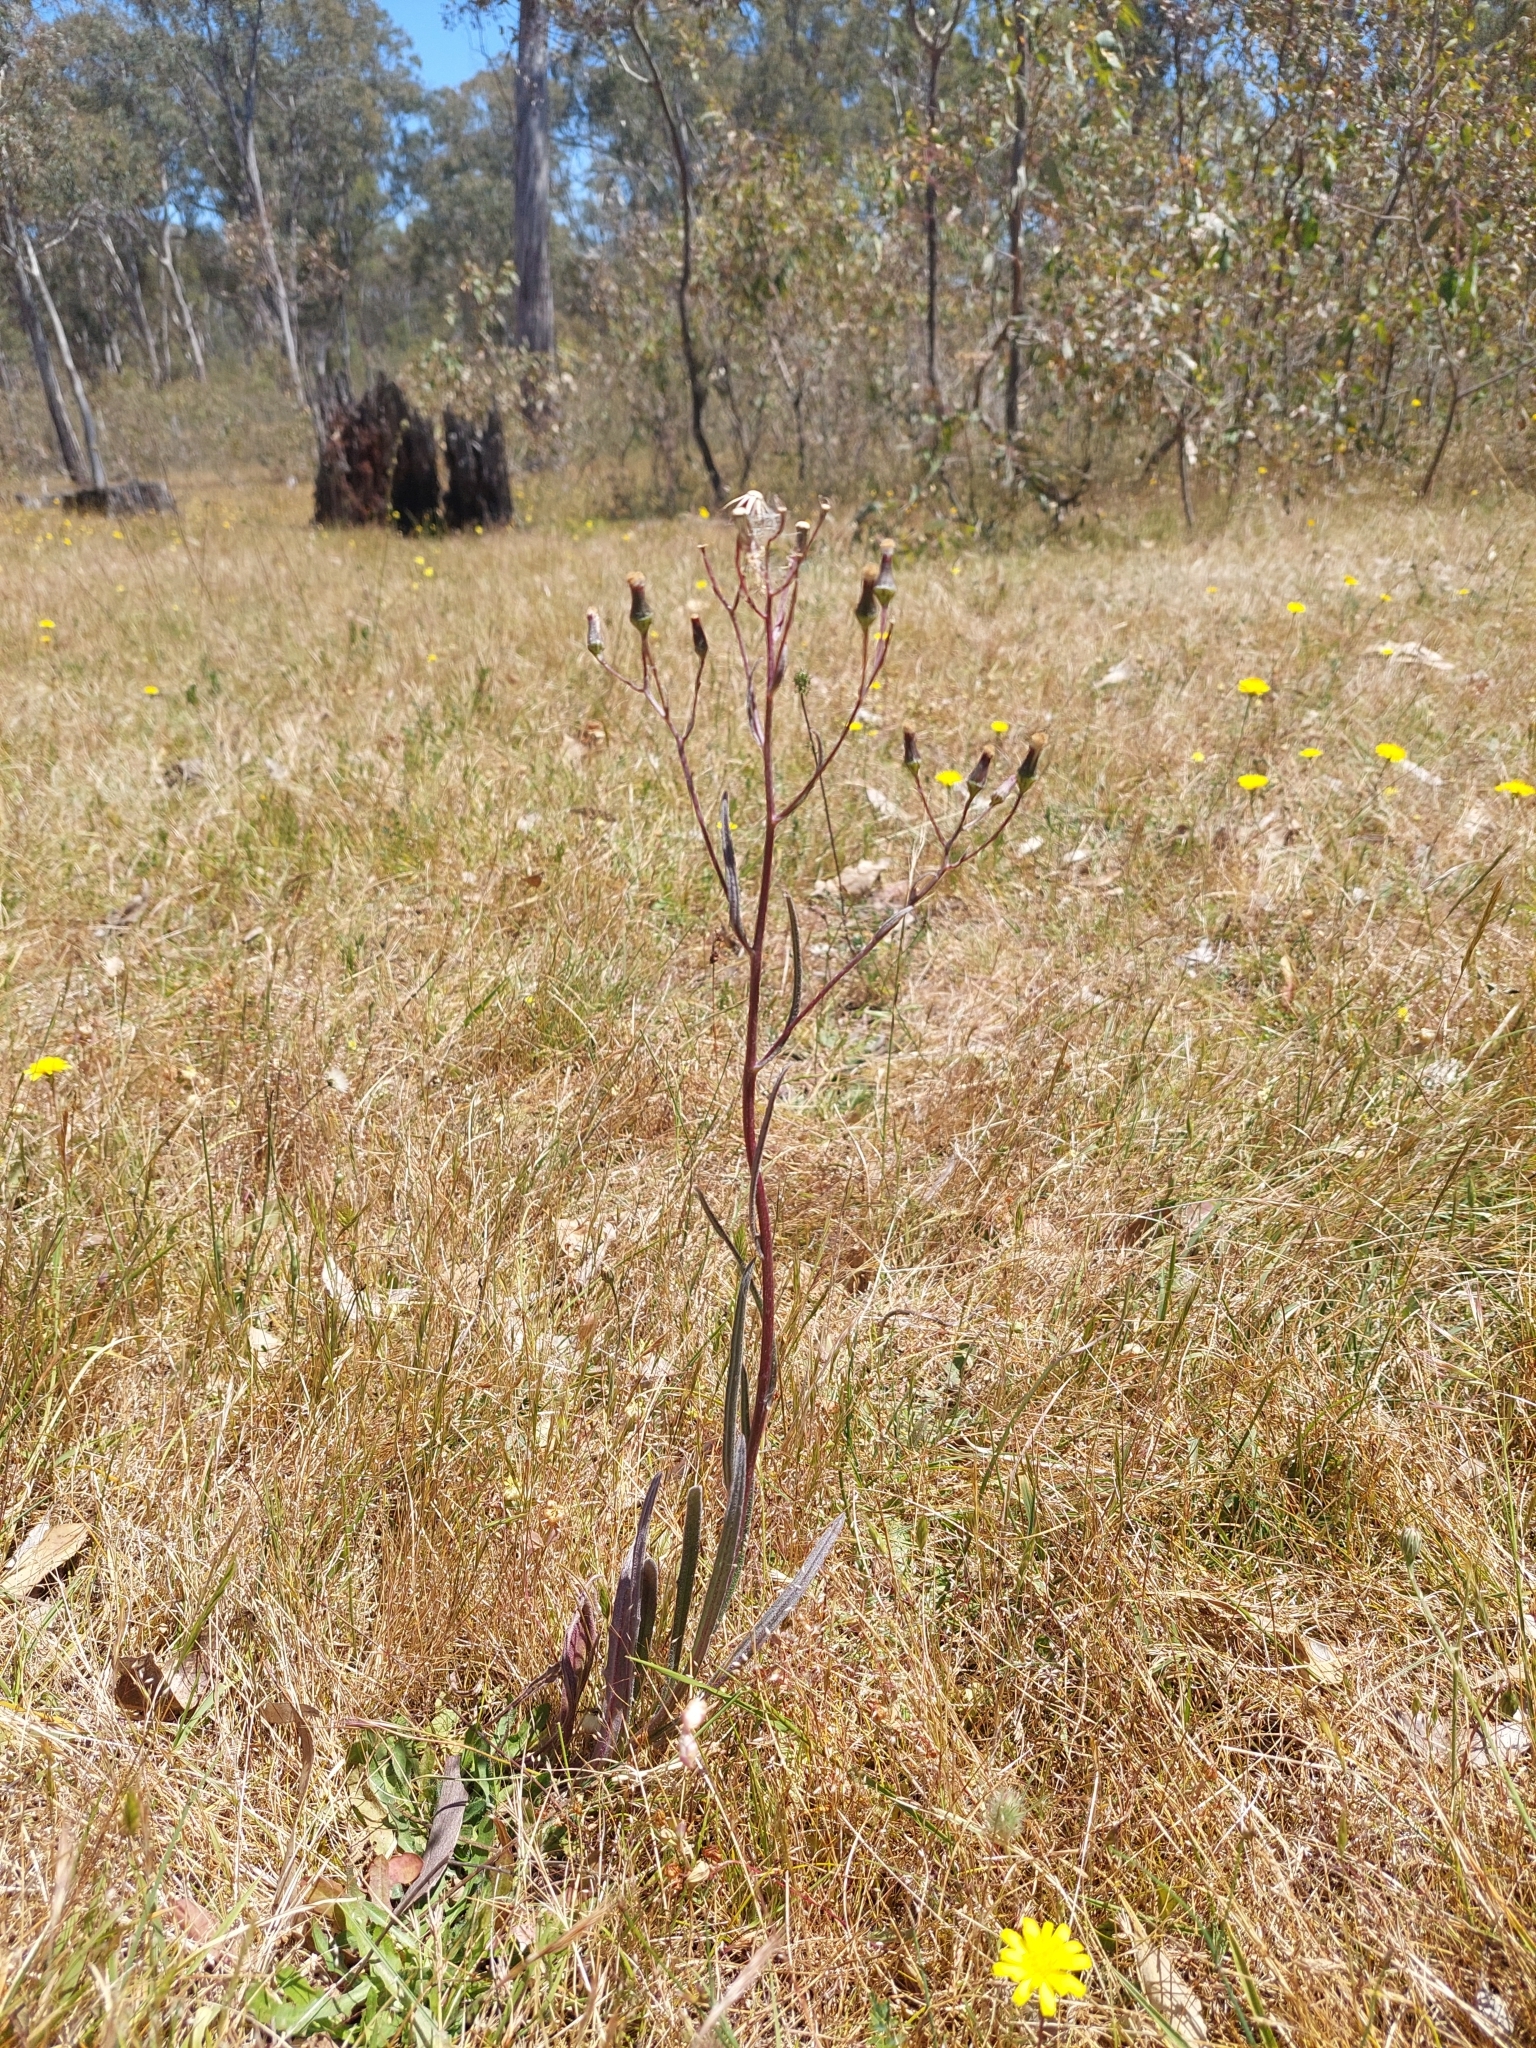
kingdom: Plantae
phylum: Tracheophyta
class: Magnoliopsida
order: Asterales
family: Asteraceae
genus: Senecio
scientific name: Senecio squarrosus
